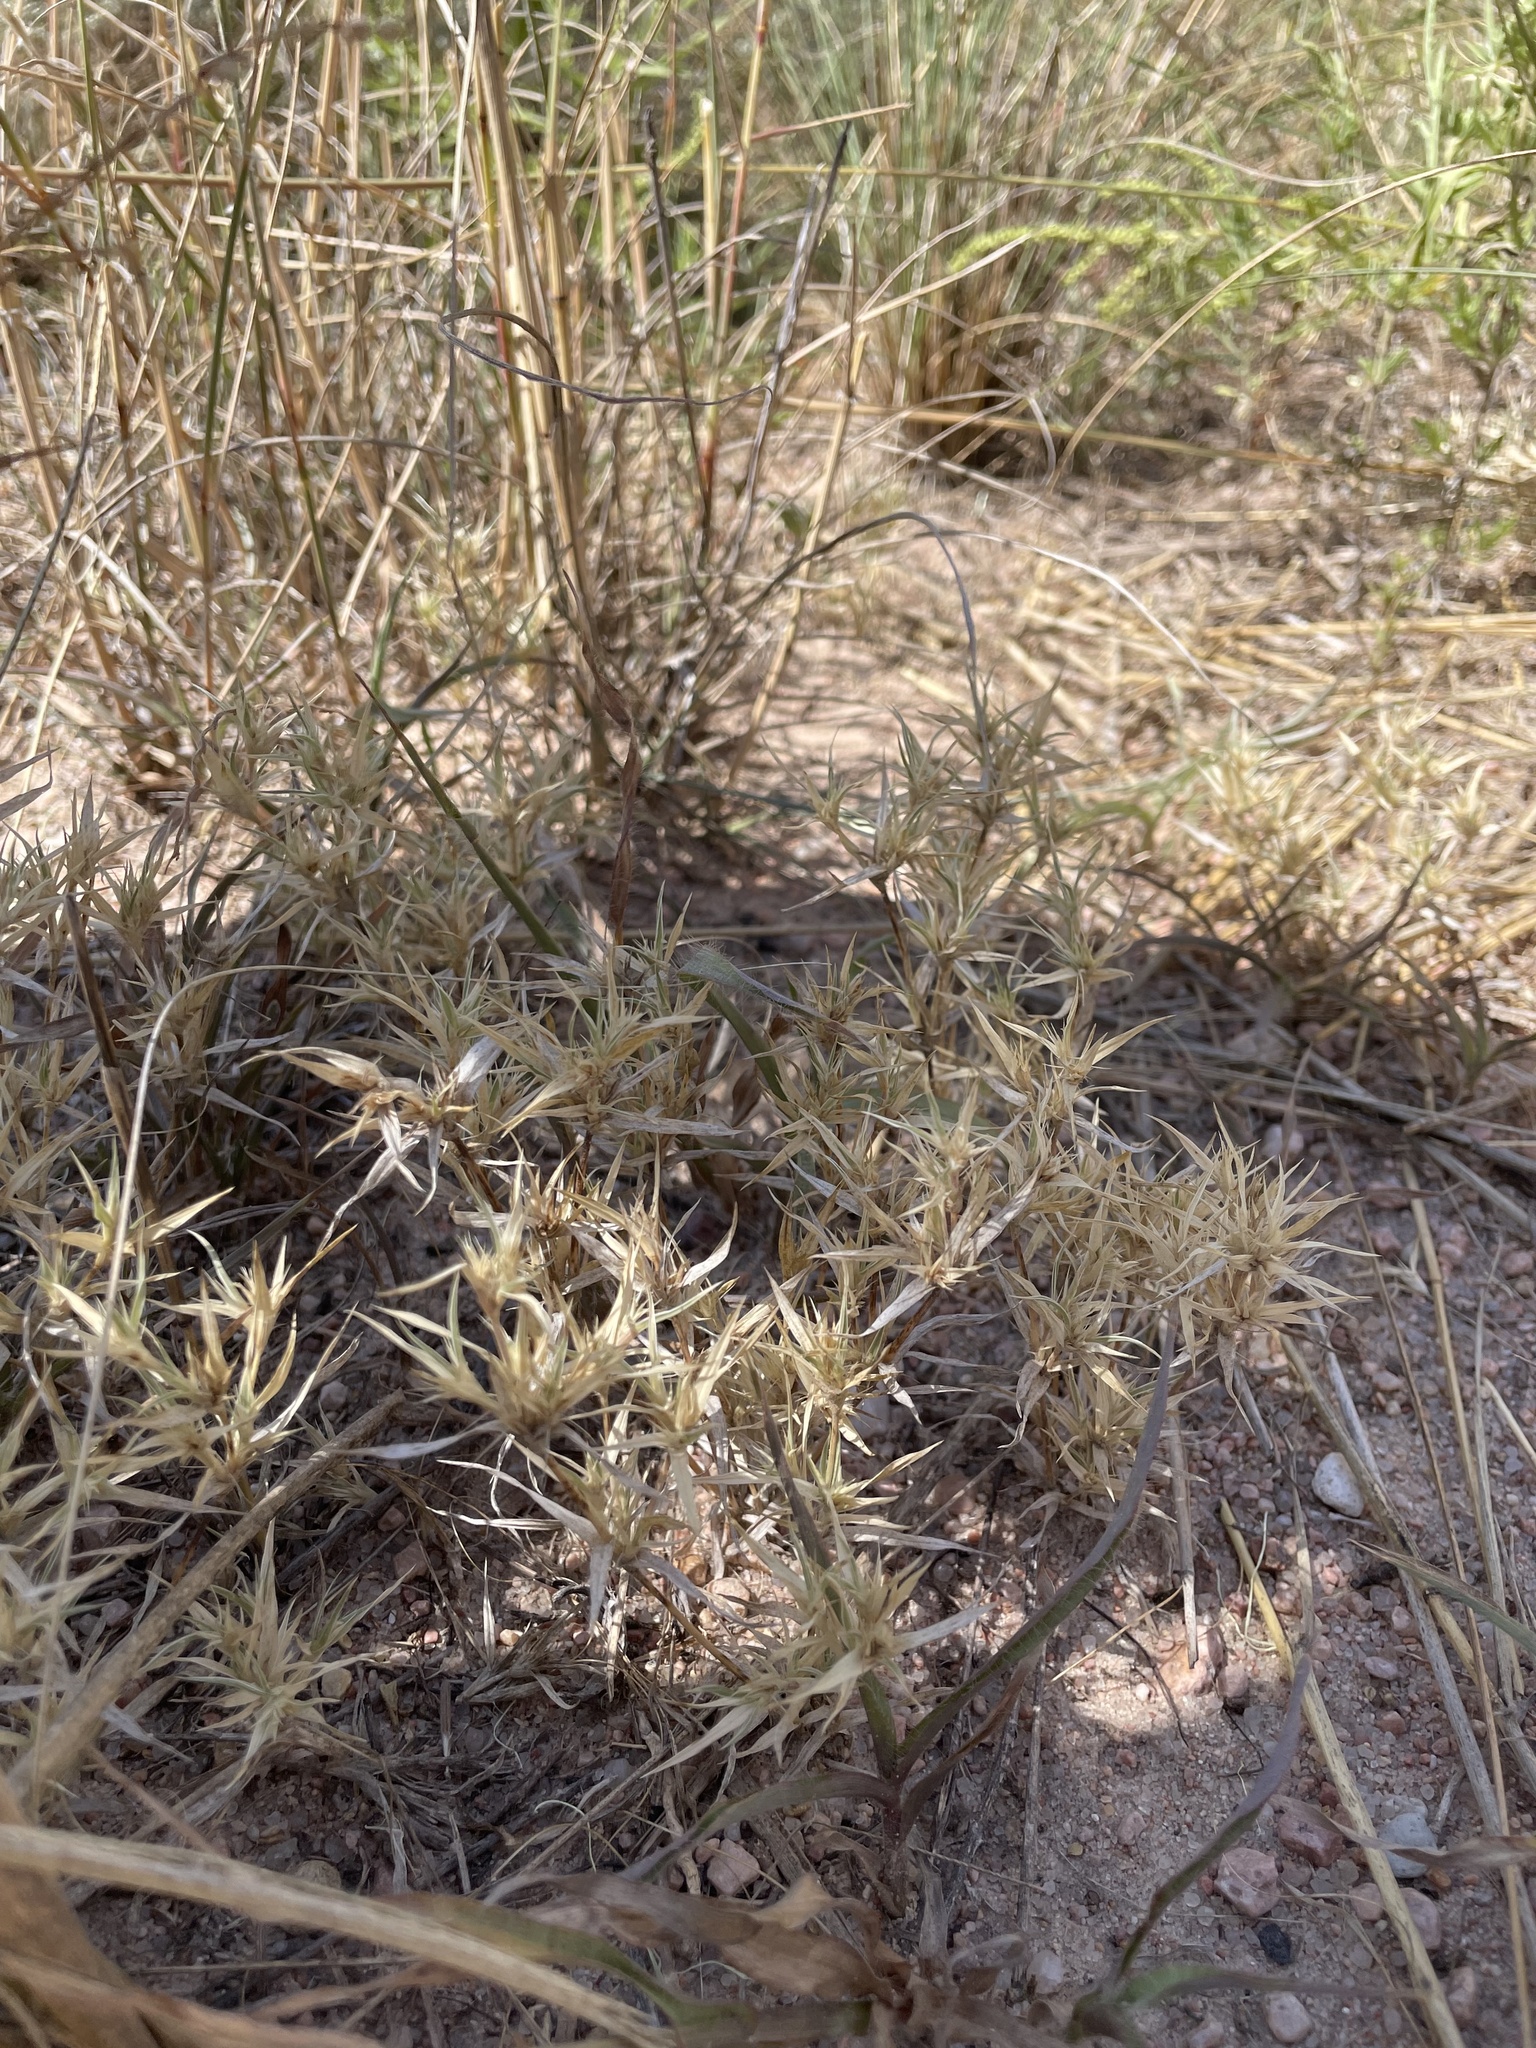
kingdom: Plantae
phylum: Tracheophyta
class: Liliopsida
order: Poales
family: Poaceae
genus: Munroa
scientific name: Munroa squarrosa
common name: False buffalo grass
